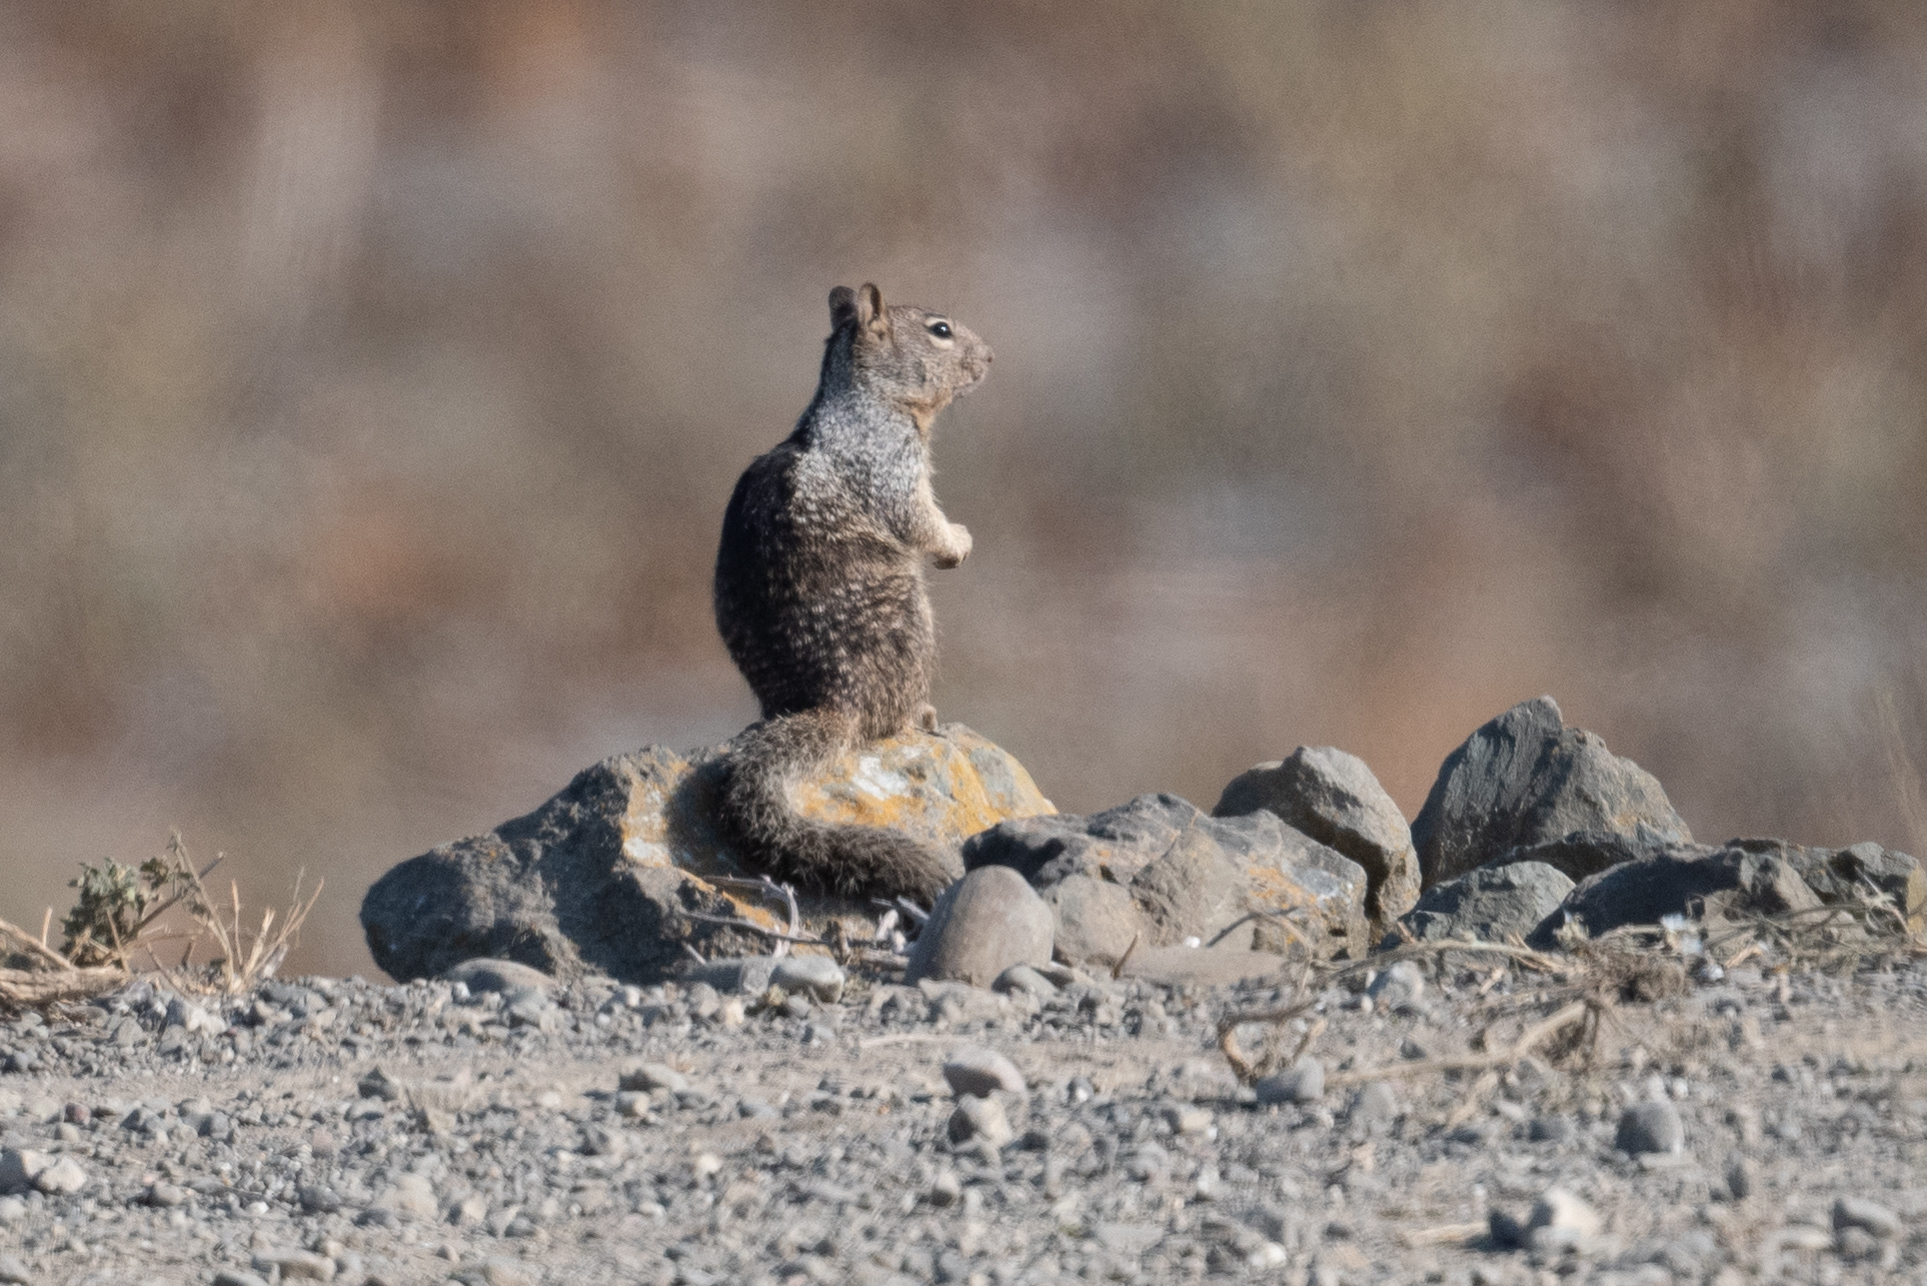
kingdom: Animalia
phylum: Chordata
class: Mammalia
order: Rodentia
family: Sciuridae
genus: Otospermophilus
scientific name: Otospermophilus beecheyi
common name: California ground squirrel
